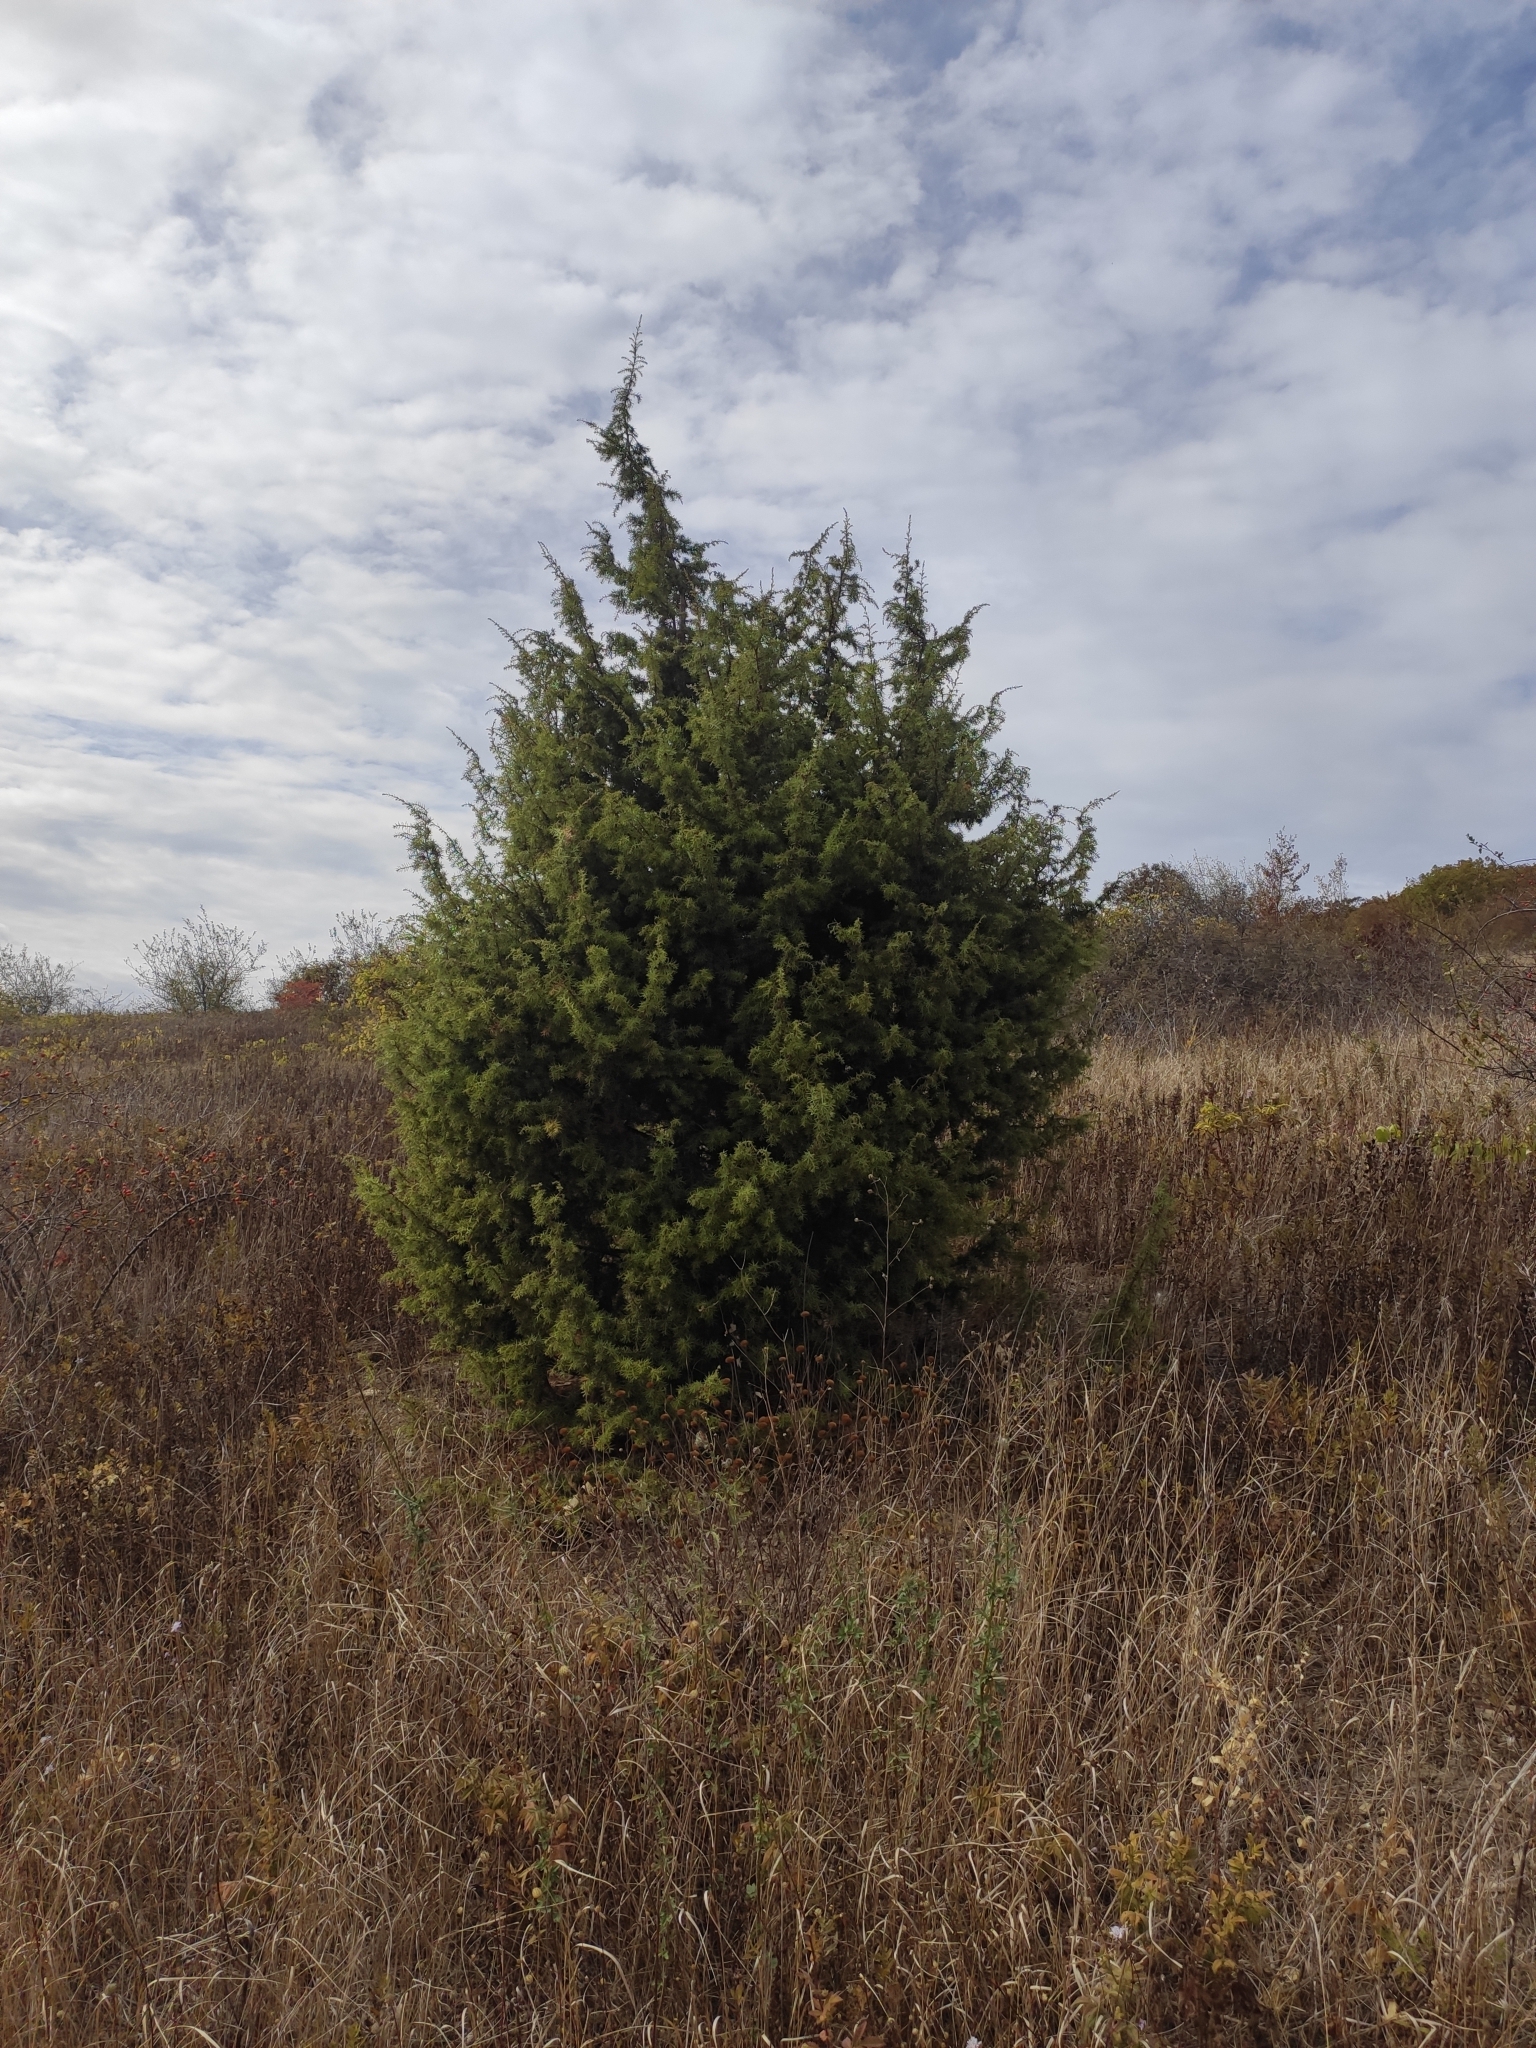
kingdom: Plantae
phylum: Tracheophyta
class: Pinopsida
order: Pinales
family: Cupressaceae
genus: Juniperus
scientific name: Juniperus oxycedrus
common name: Prickly juniper
